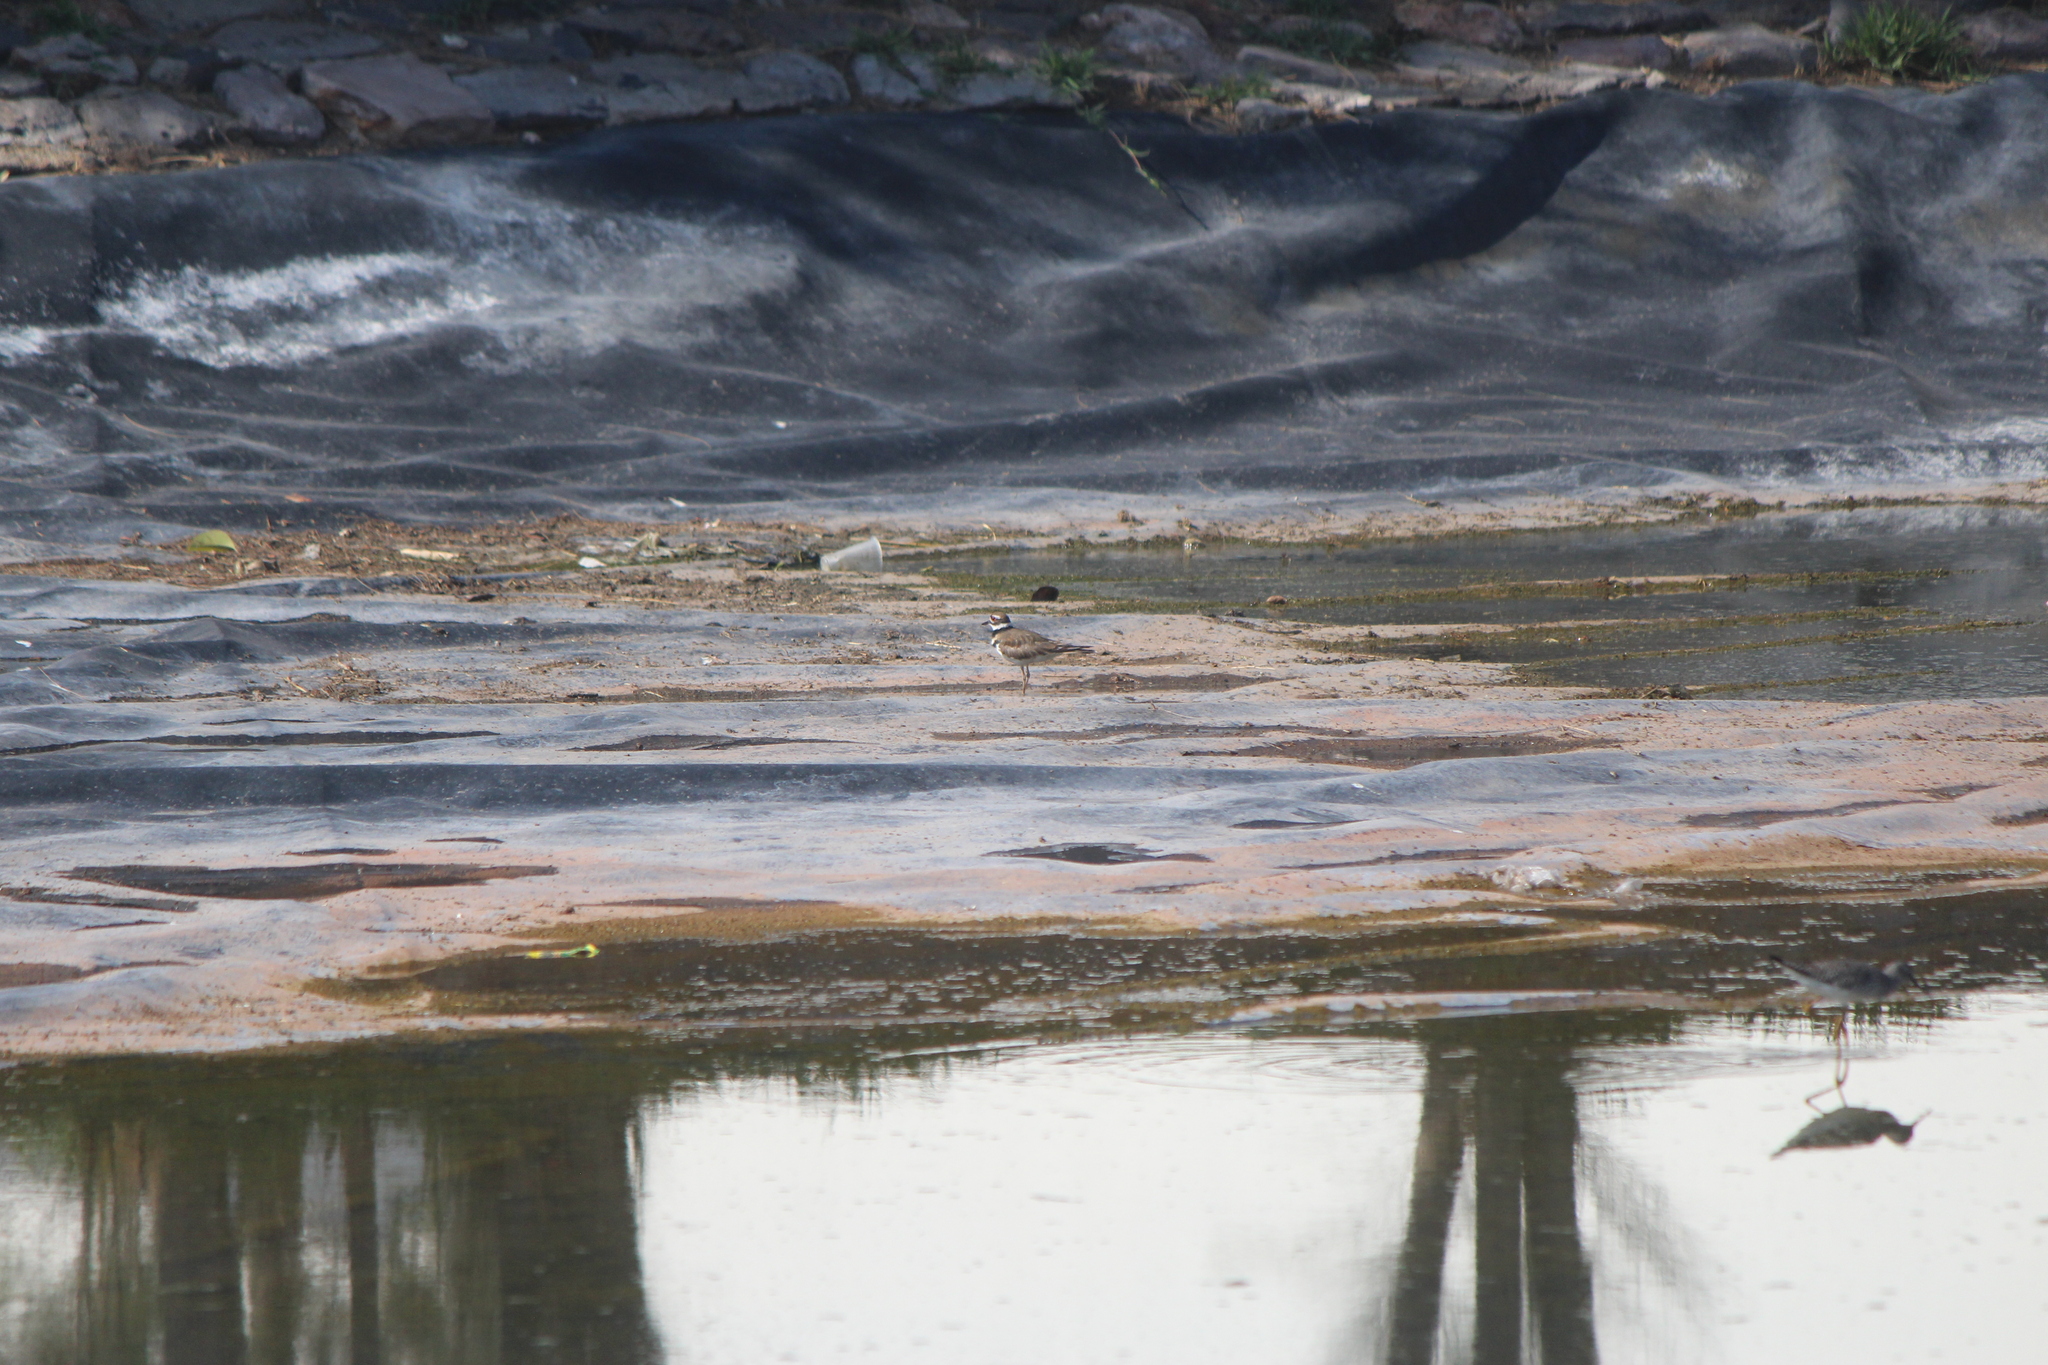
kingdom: Animalia
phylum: Chordata
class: Aves
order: Charadriiformes
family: Charadriidae
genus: Charadrius
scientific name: Charadrius vociferus
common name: Killdeer
